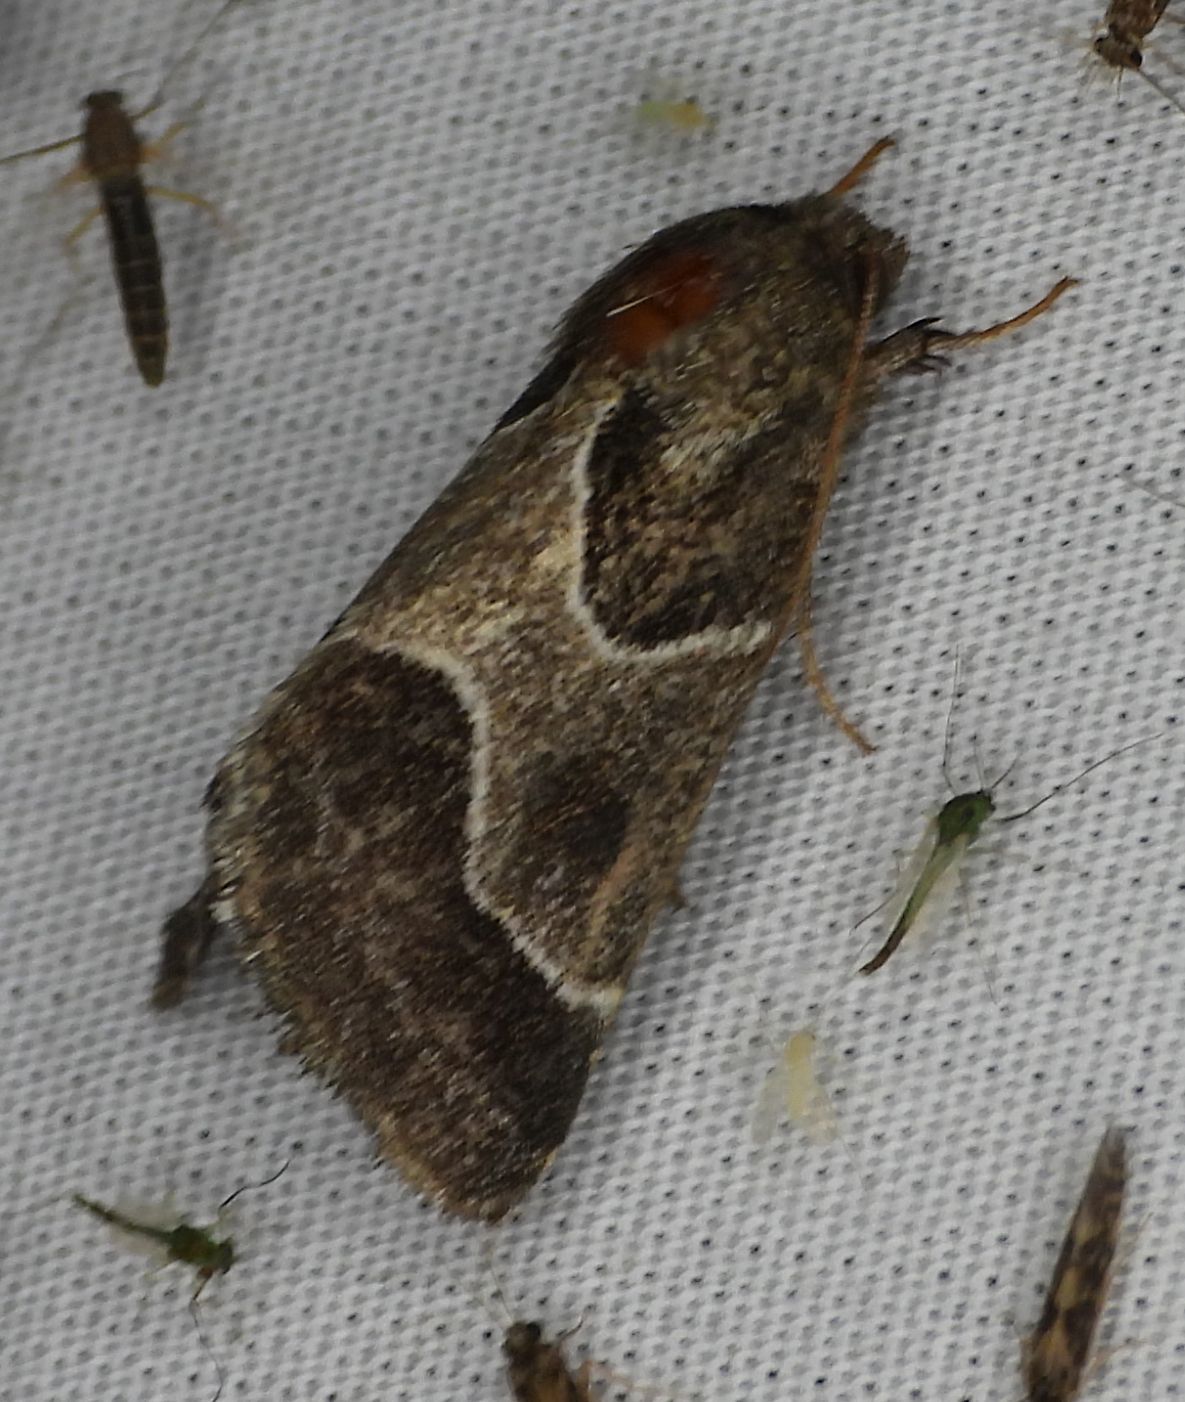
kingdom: Animalia
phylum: Arthropoda
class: Insecta
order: Lepidoptera
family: Noctuidae
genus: Schinia
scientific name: Schinia rivulosa
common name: Scarce meal-moth
